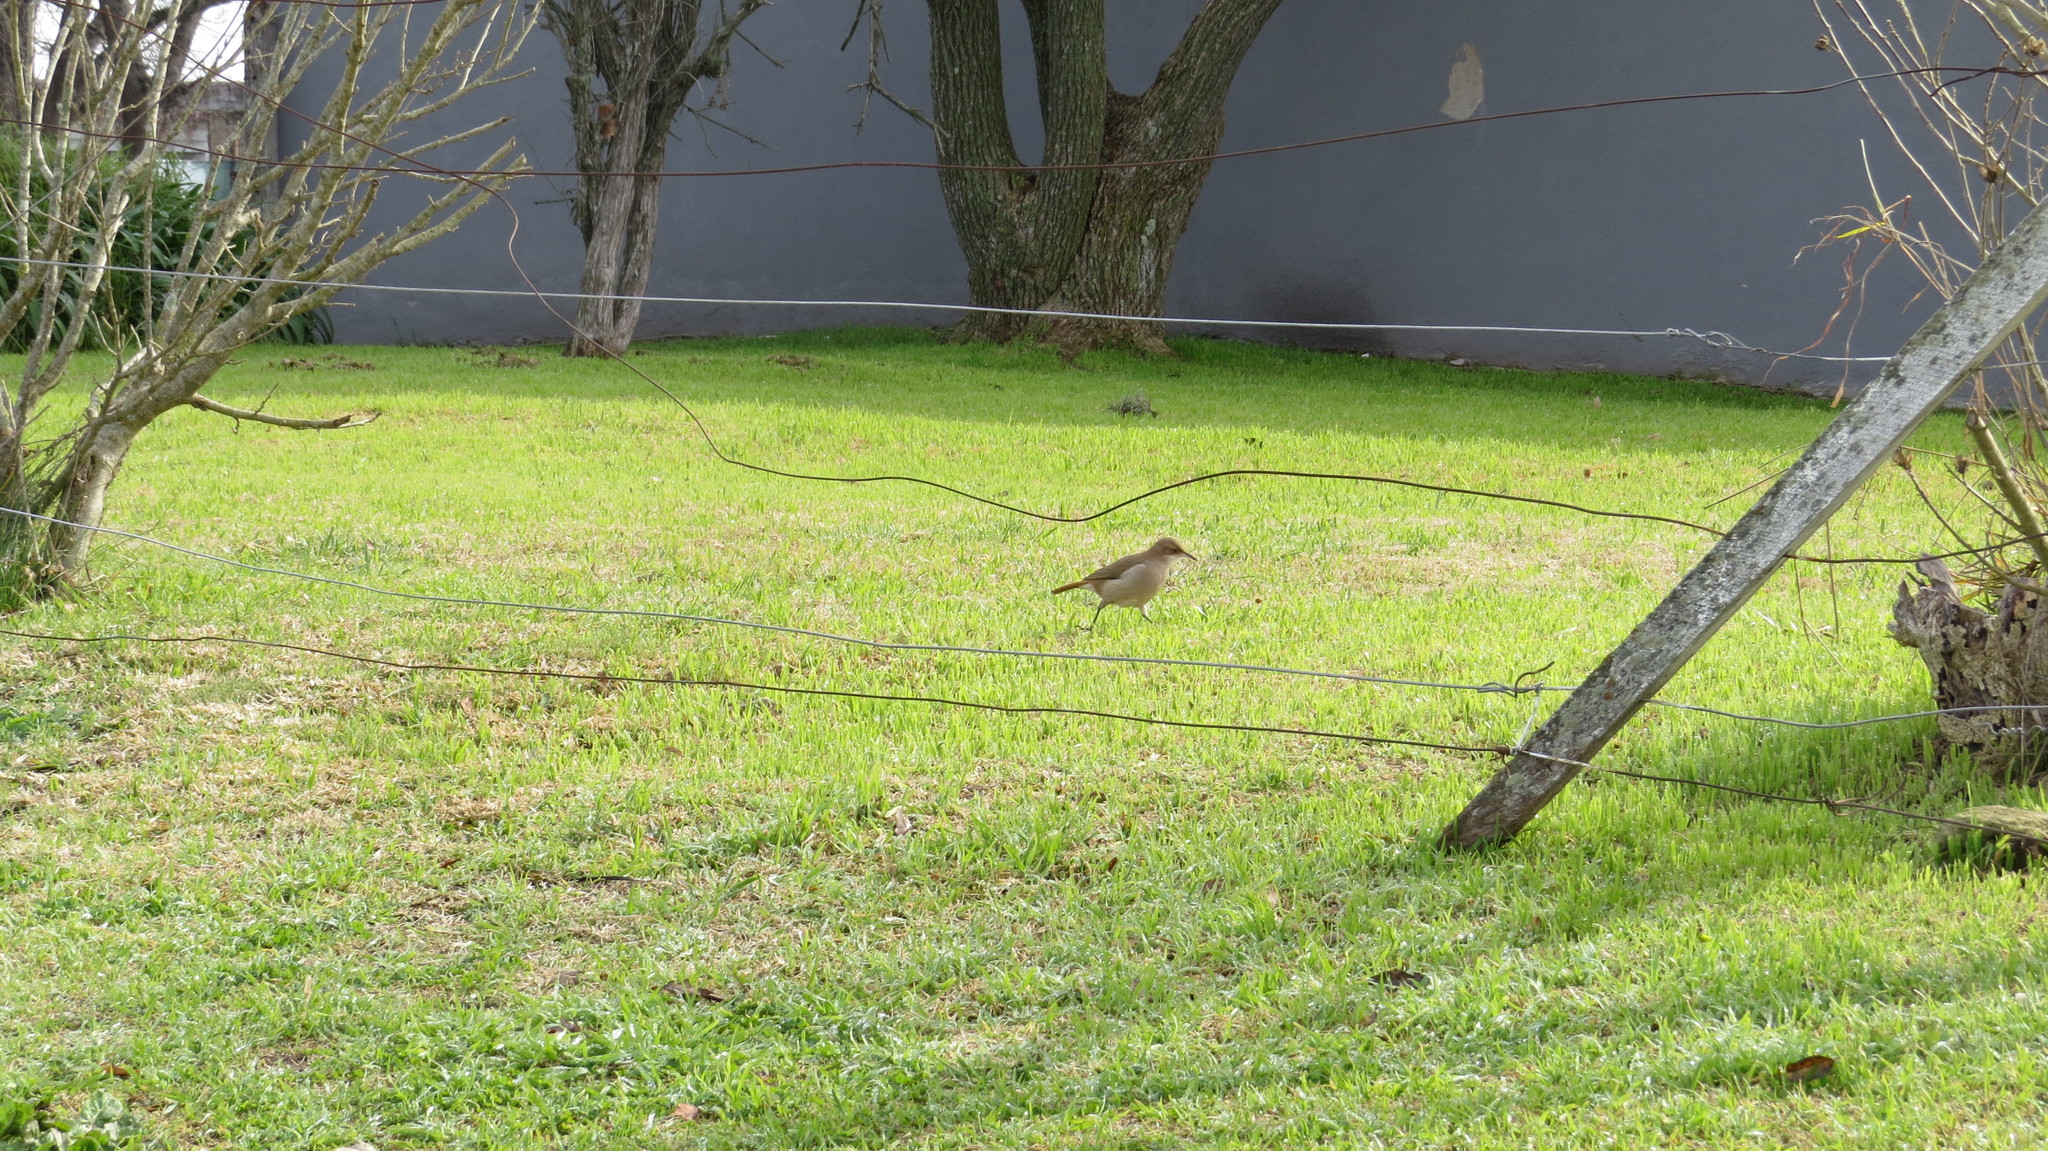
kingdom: Animalia
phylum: Chordata
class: Aves
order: Passeriformes
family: Furnariidae
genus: Furnarius
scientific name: Furnarius rufus
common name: Rufous hornero
